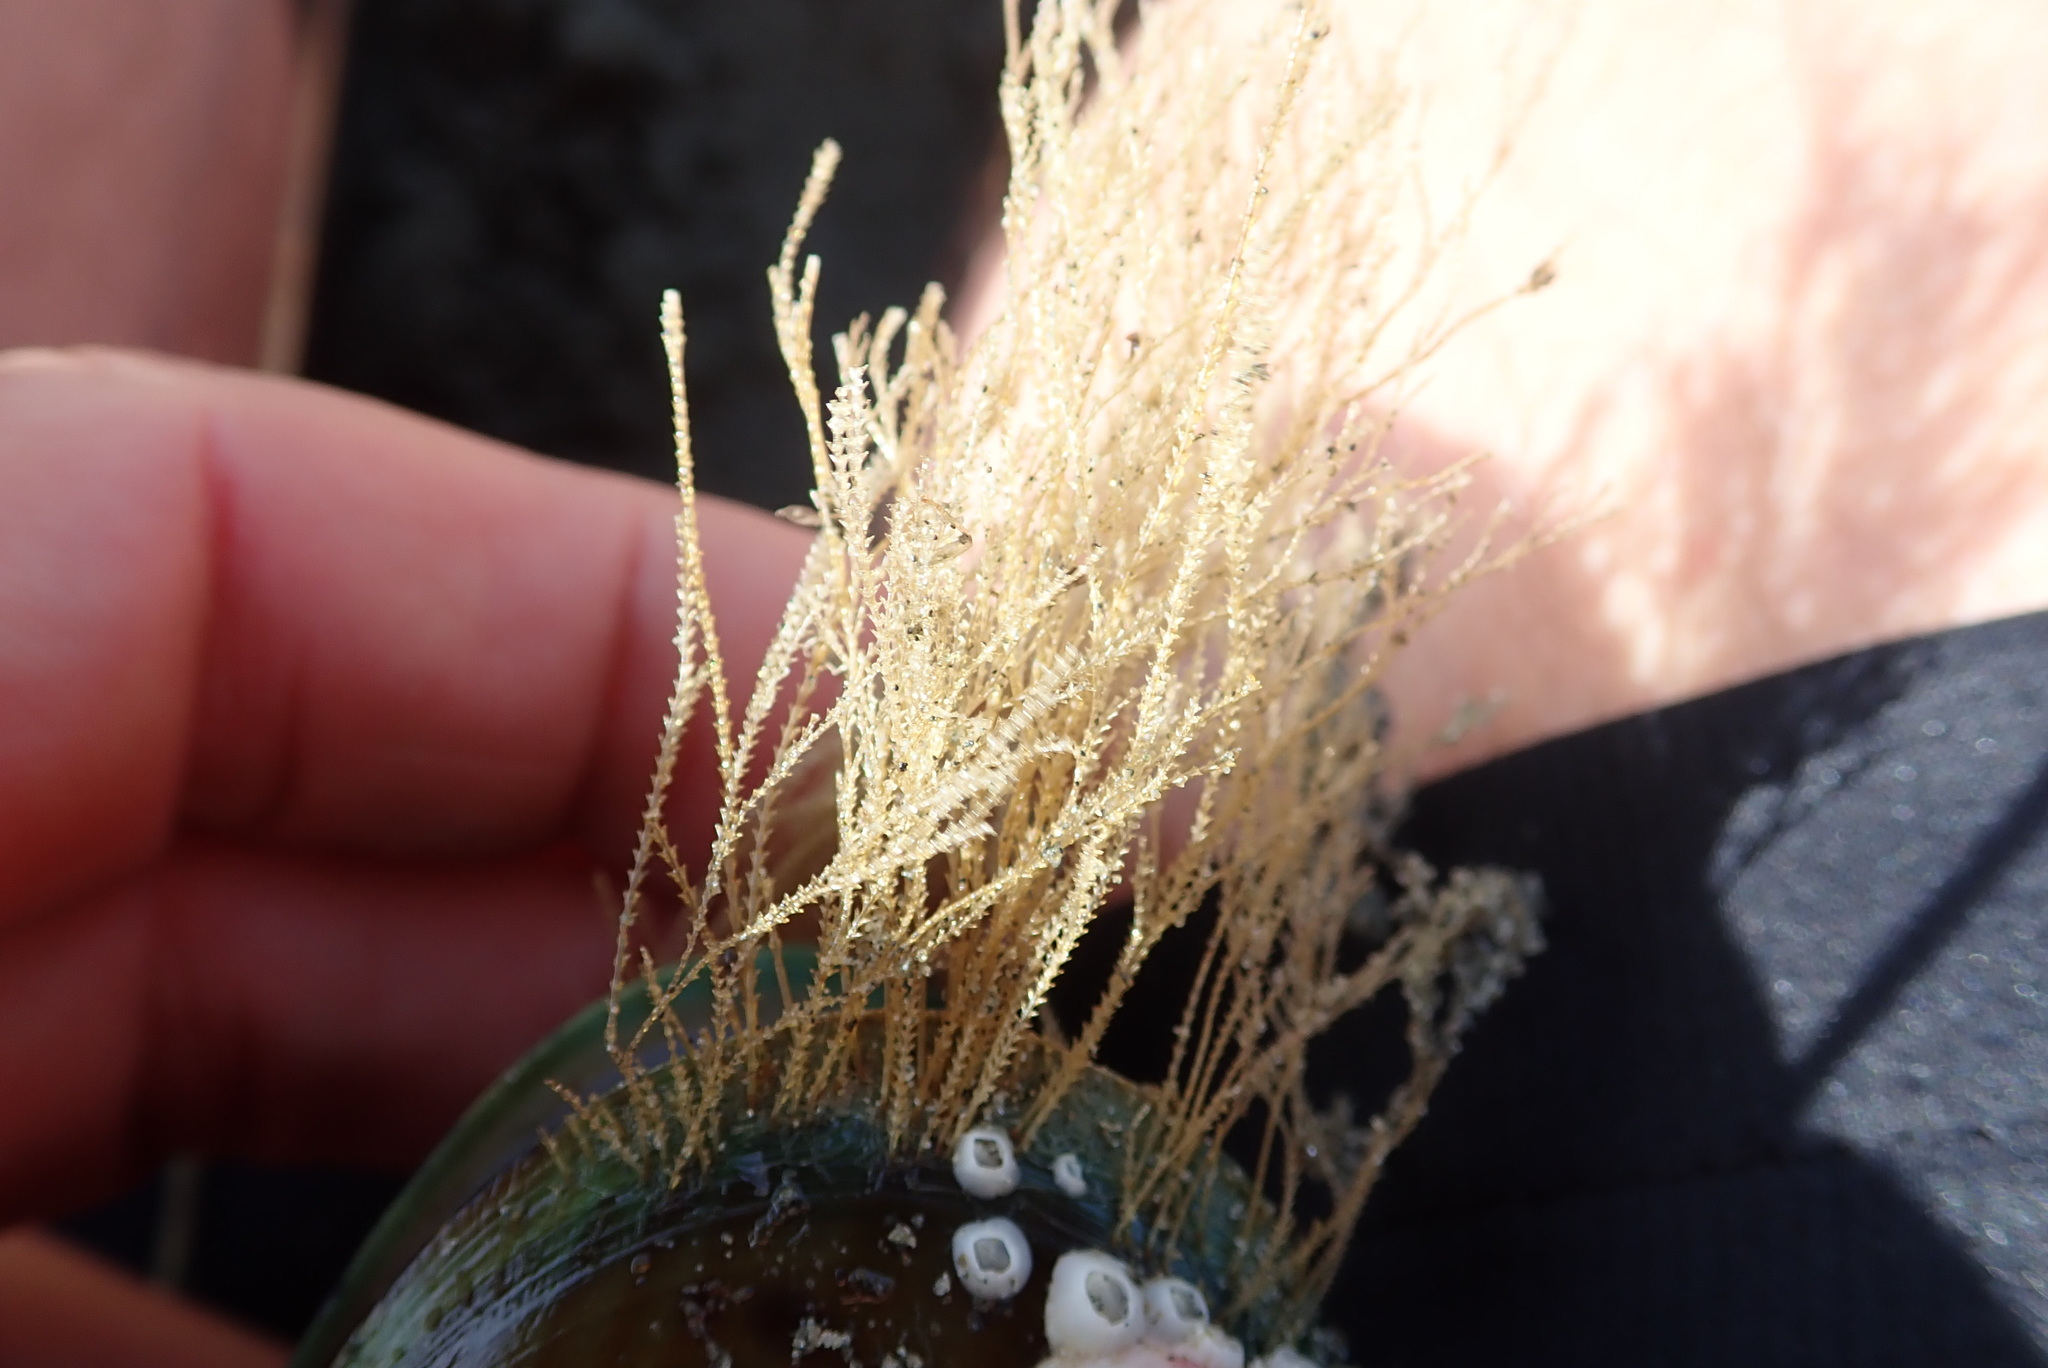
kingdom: Animalia
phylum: Cnidaria
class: Hydrozoa
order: Leptothecata
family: Sertulariidae
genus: Amphisbetia
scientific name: Amphisbetia bispinosa
